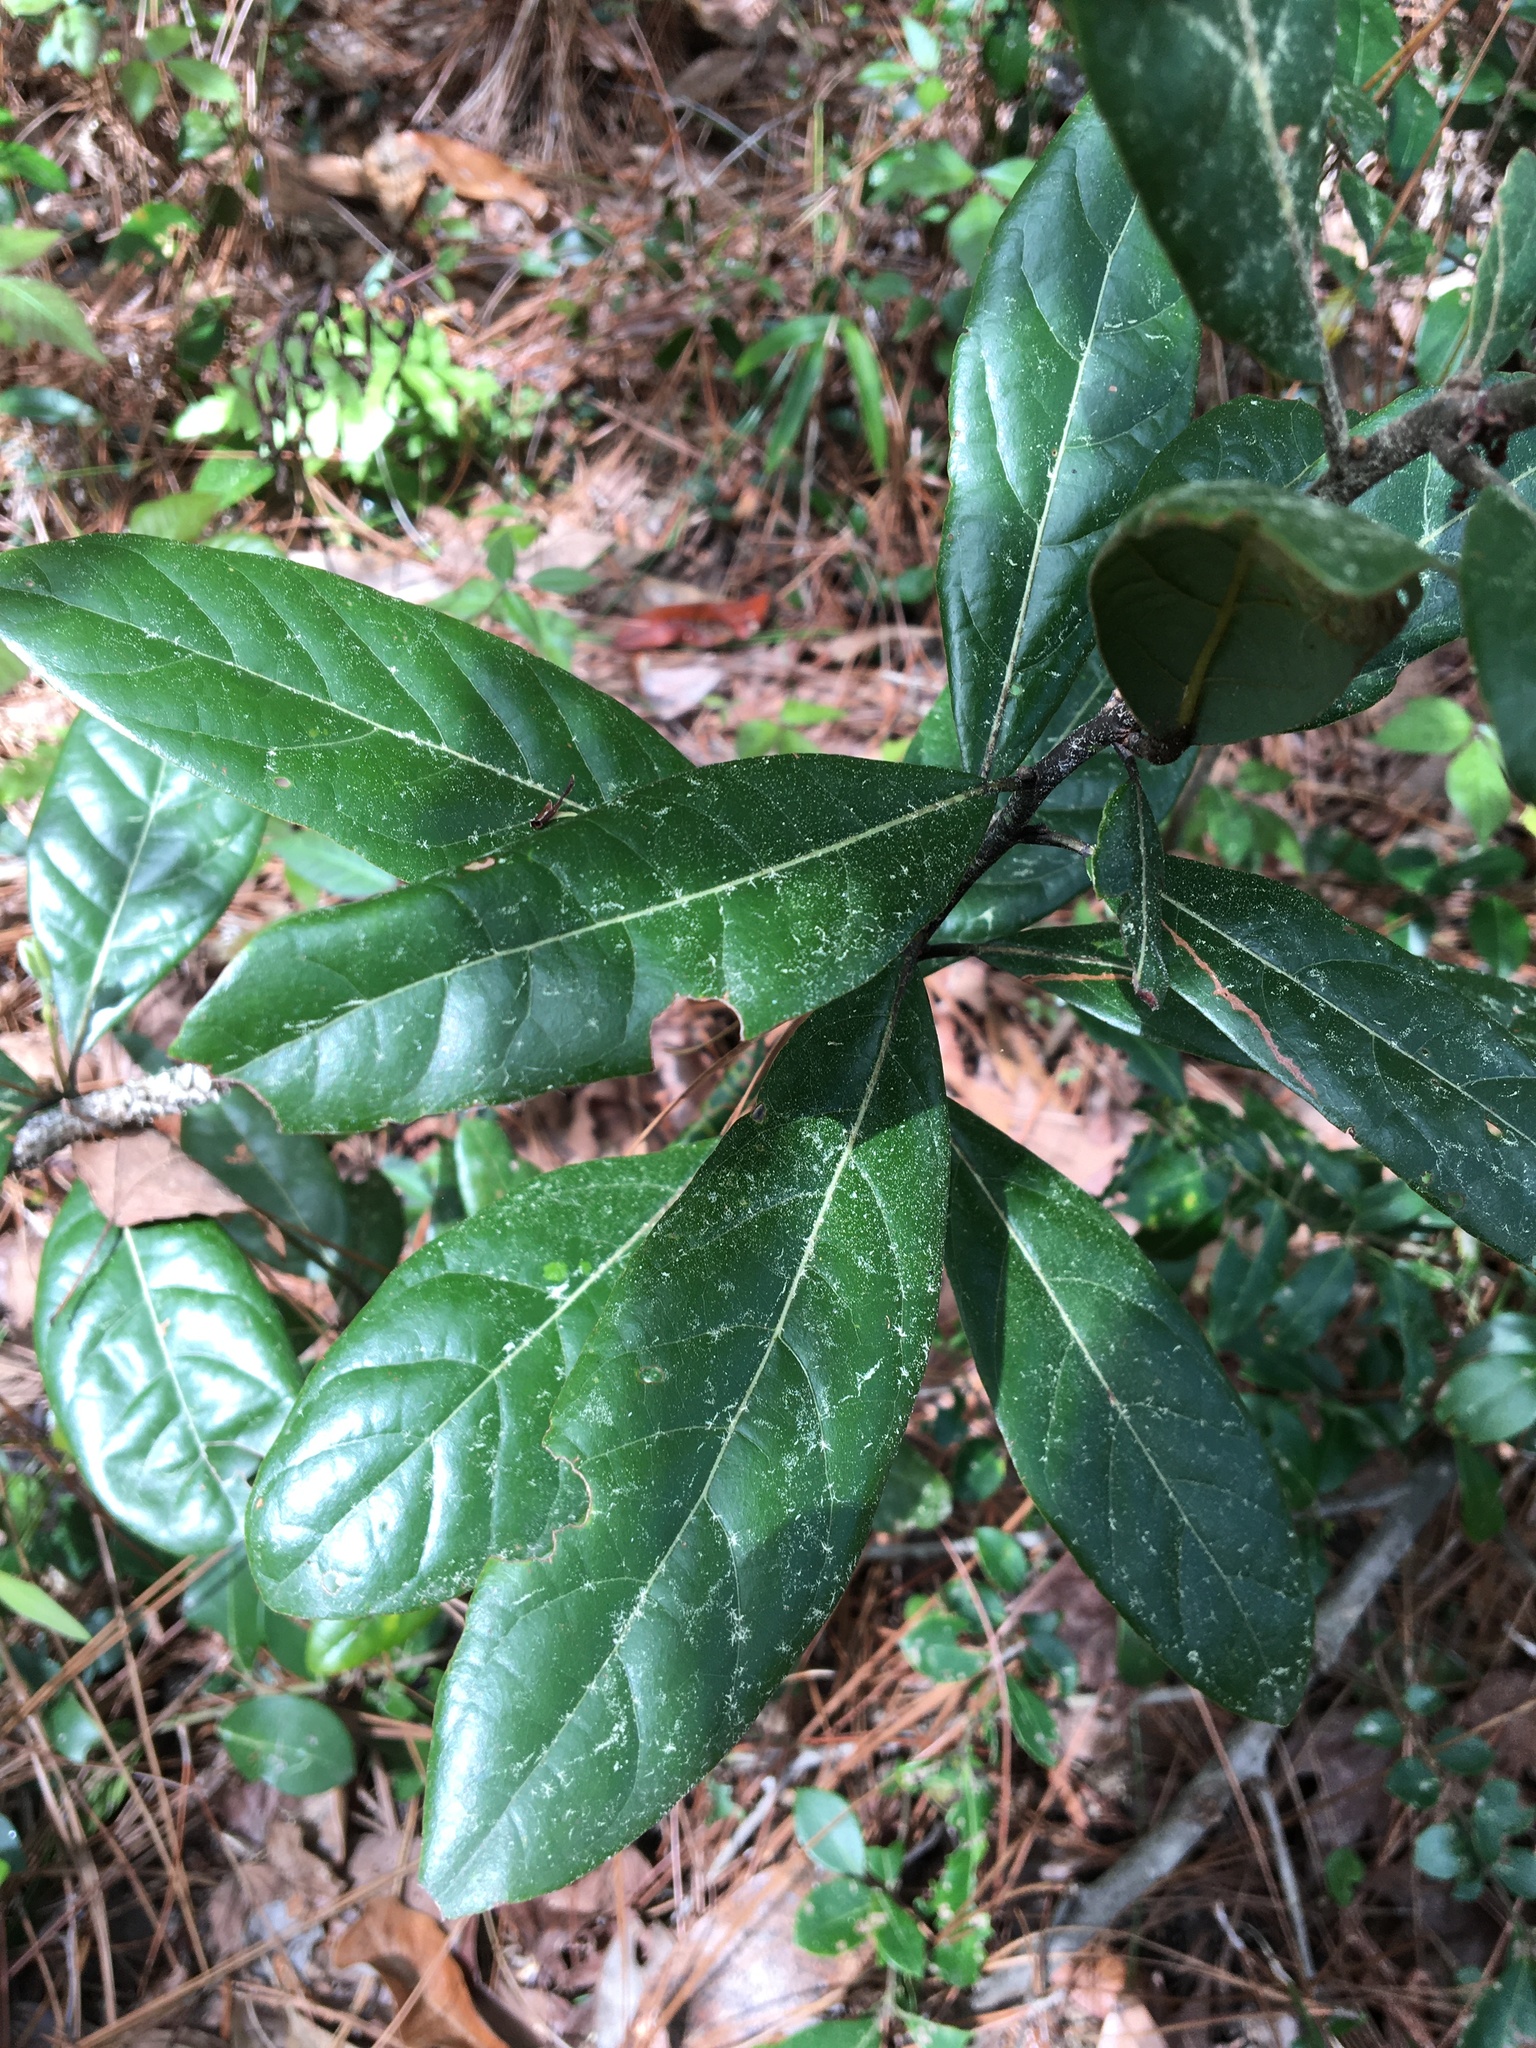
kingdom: Plantae
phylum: Tracheophyta
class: Magnoliopsida
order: Laurales
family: Lauraceae
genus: Persea
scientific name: Persea palustris
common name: Swampbay
